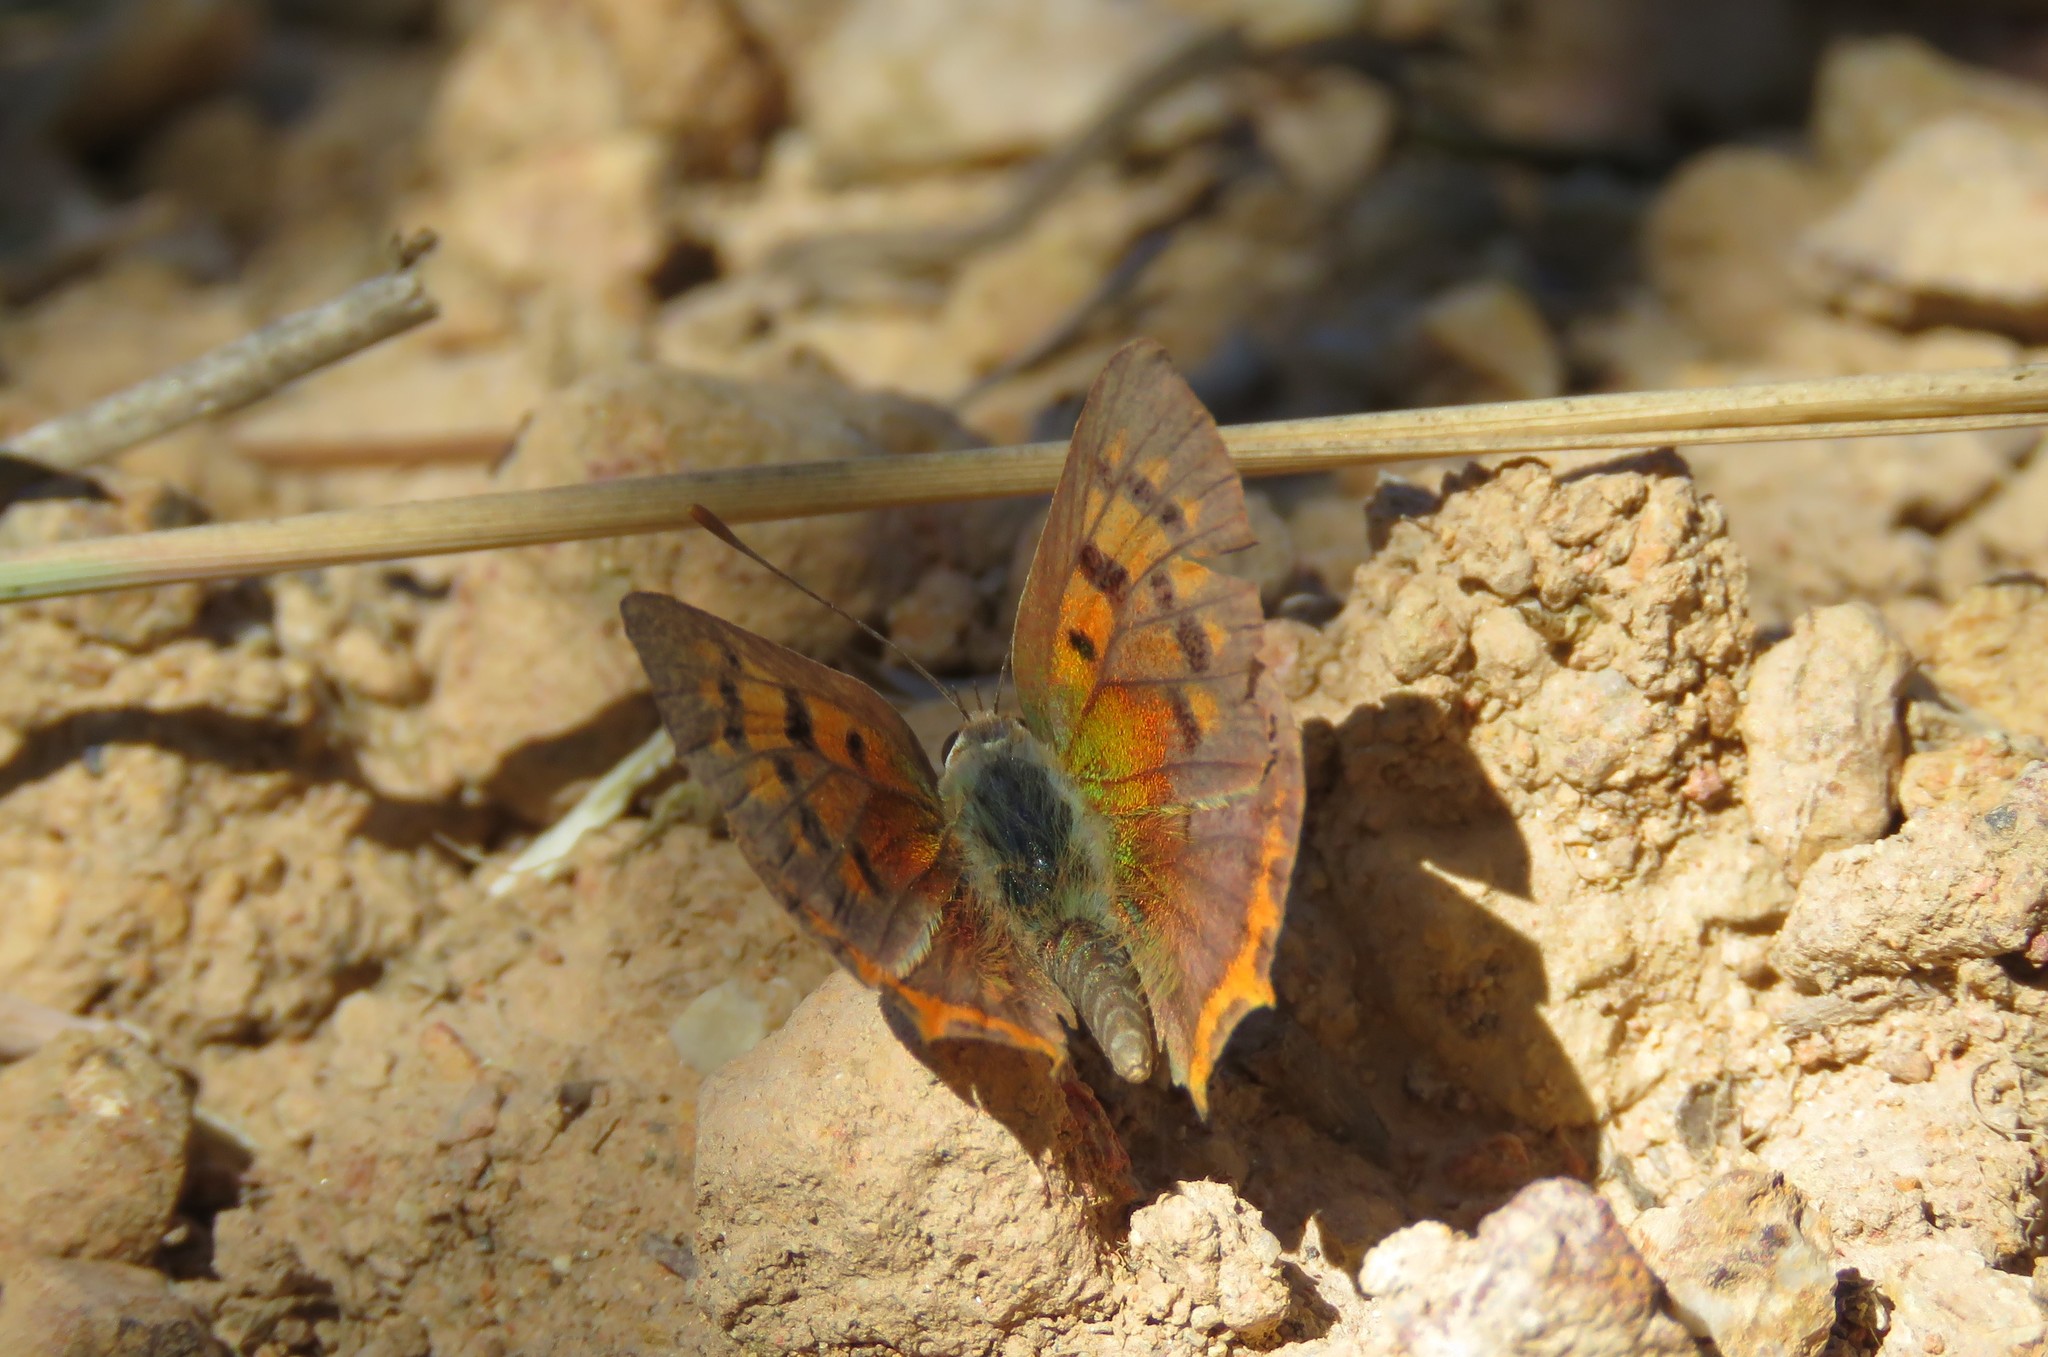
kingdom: Animalia
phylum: Arthropoda
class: Insecta
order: Lepidoptera
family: Lycaenidae
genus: Lycaena
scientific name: Lycaena phlaeas
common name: Small copper
